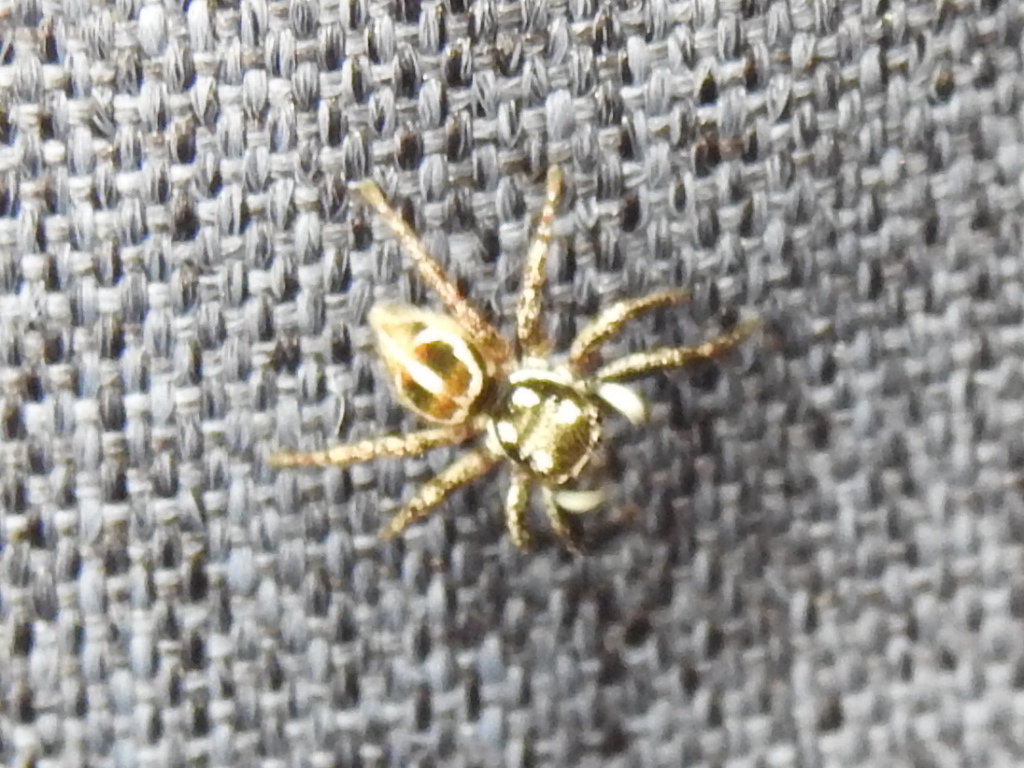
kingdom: Animalia
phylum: Arthropoda
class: Arachnida
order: Araneae
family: Salticidae
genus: Anasaitis
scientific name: Anasaitis canosa
